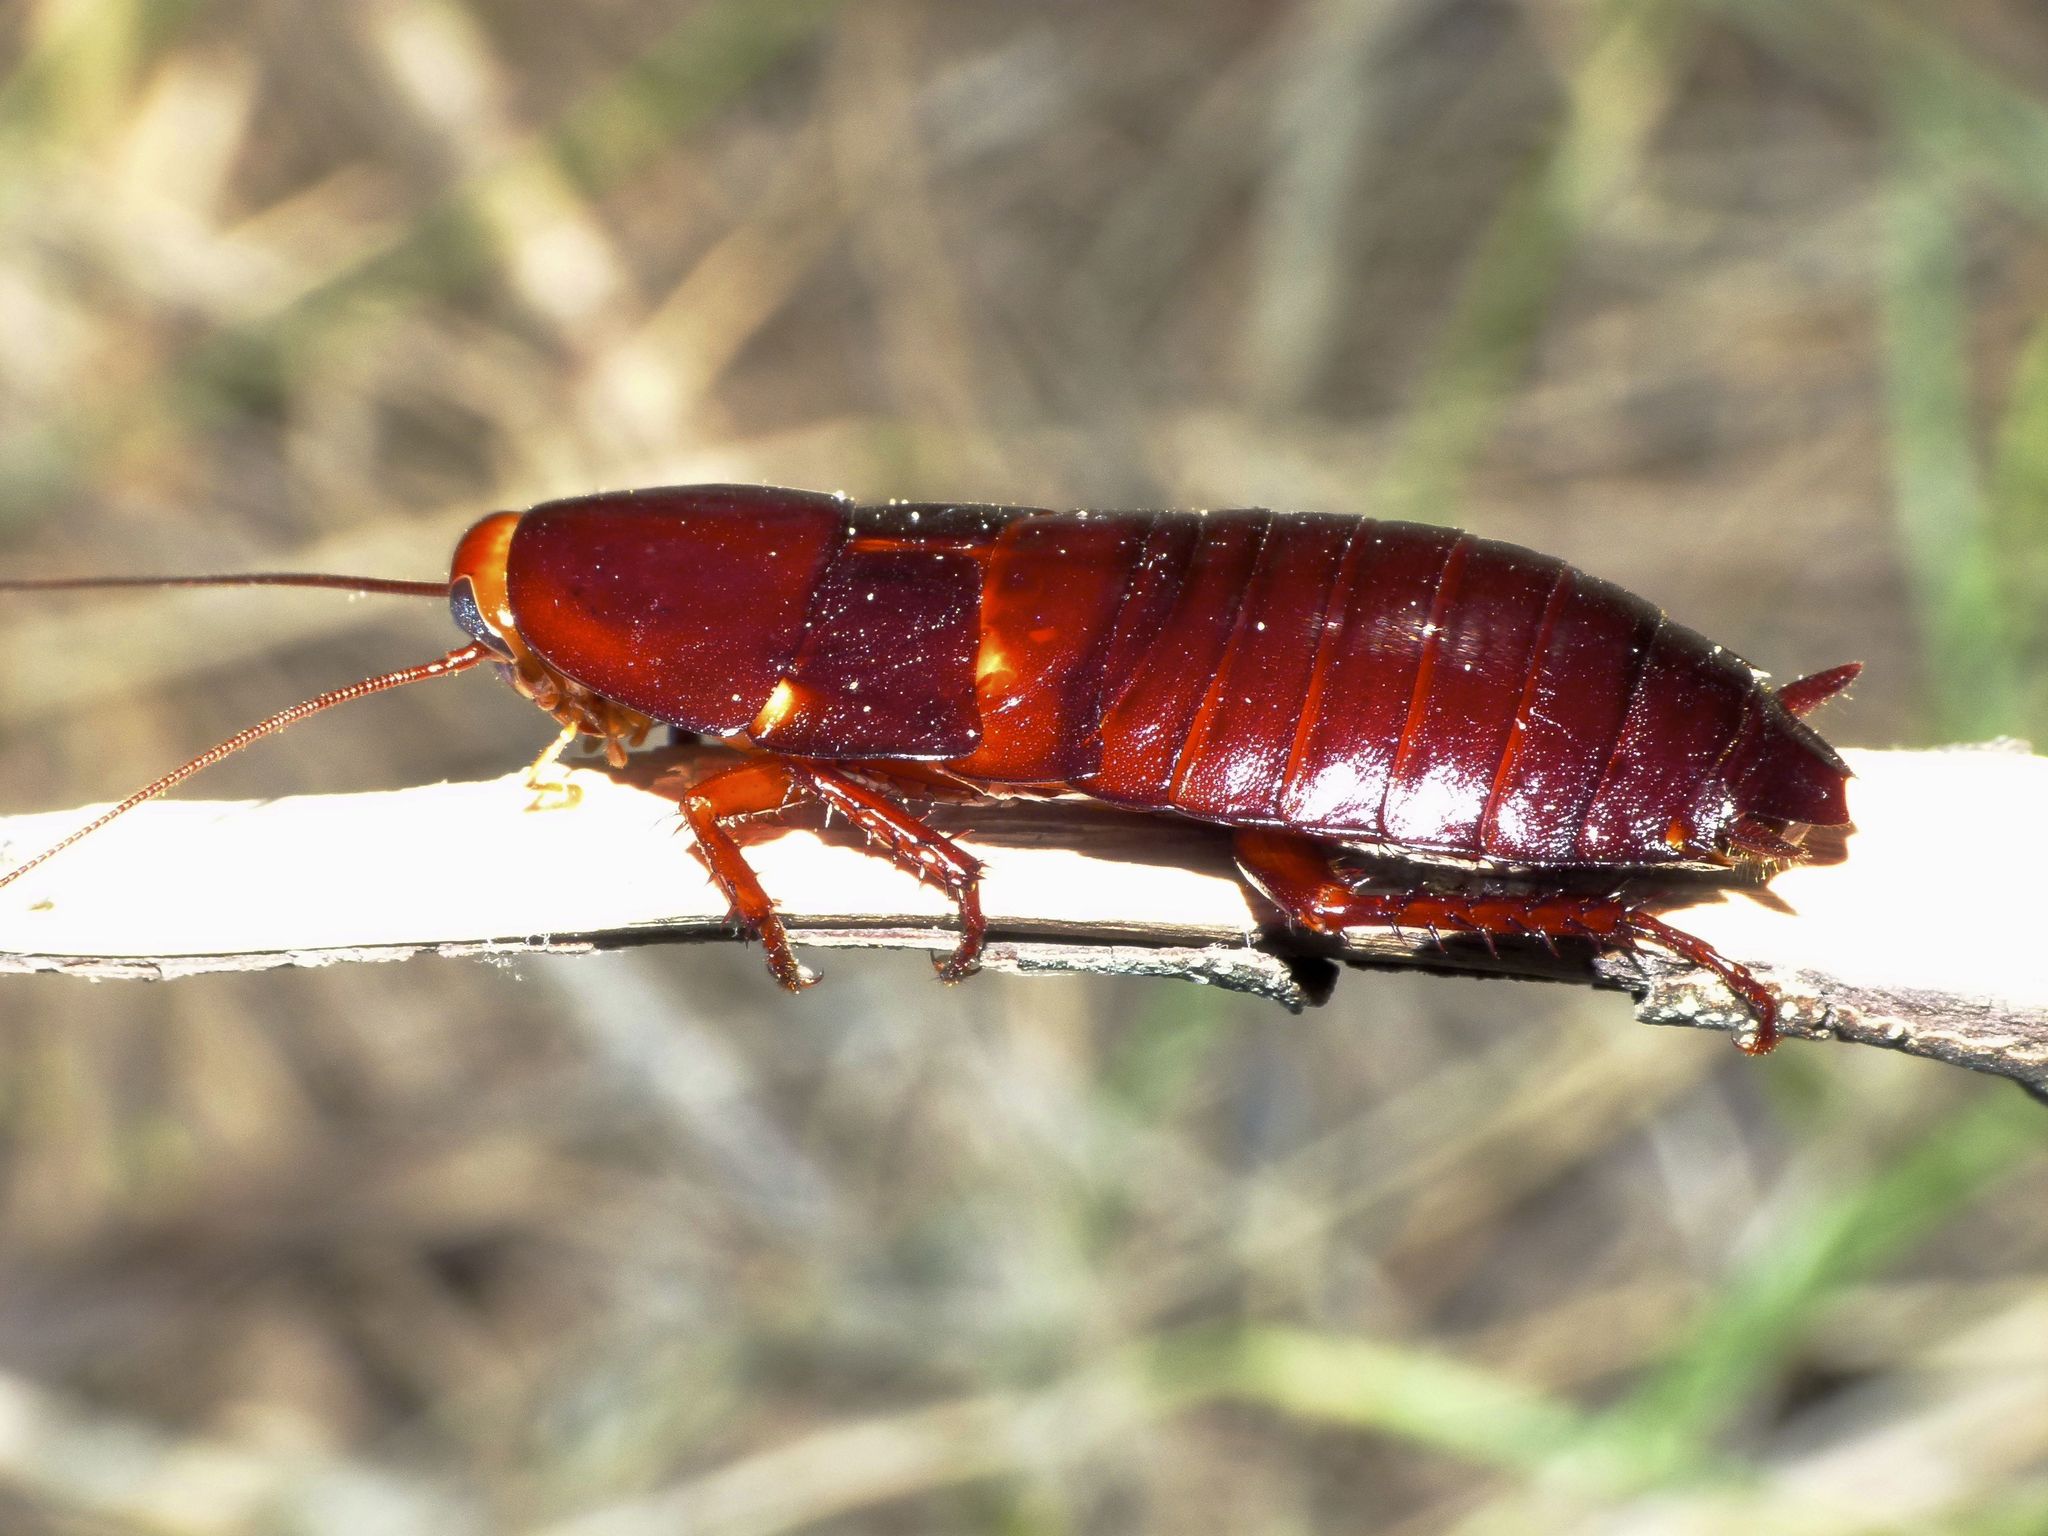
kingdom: Animalia
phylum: Arthropoda
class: Insecta
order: Blattodea
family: Blattidae
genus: Eurycotis
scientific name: Eurycotis floridana
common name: Florida cockroach
